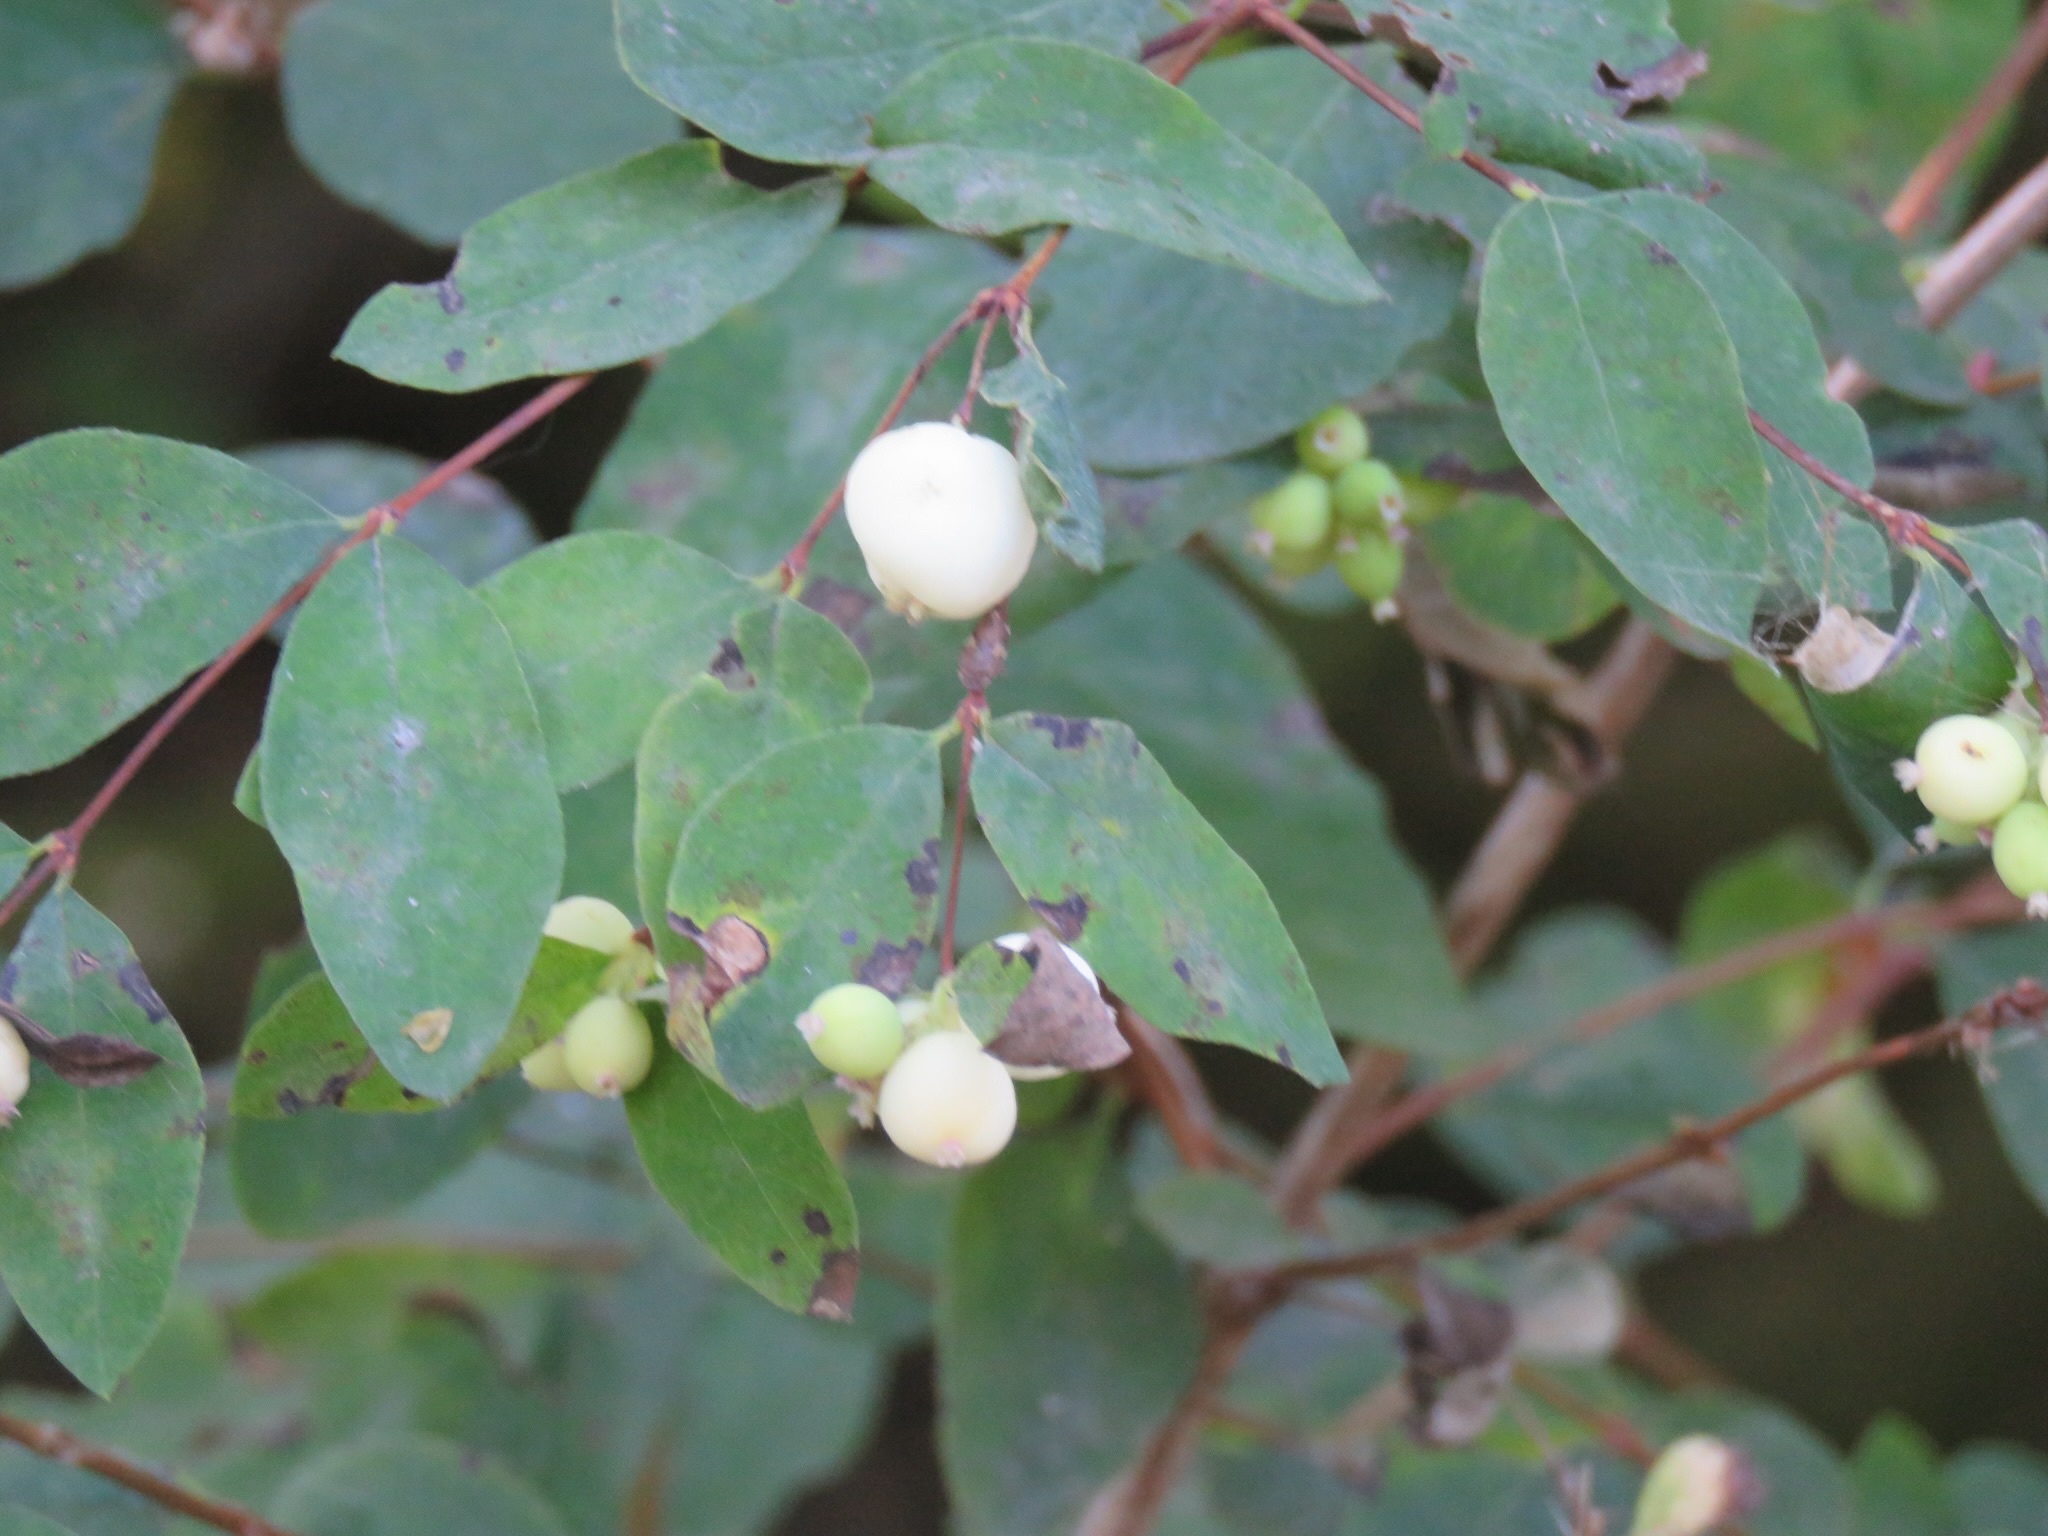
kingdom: Plantae
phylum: Tracheophyta
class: Magnoliopsida
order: Dipsacales
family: Caprifoliaceae
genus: Symphoricarpos
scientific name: Symphoricarpos albus
